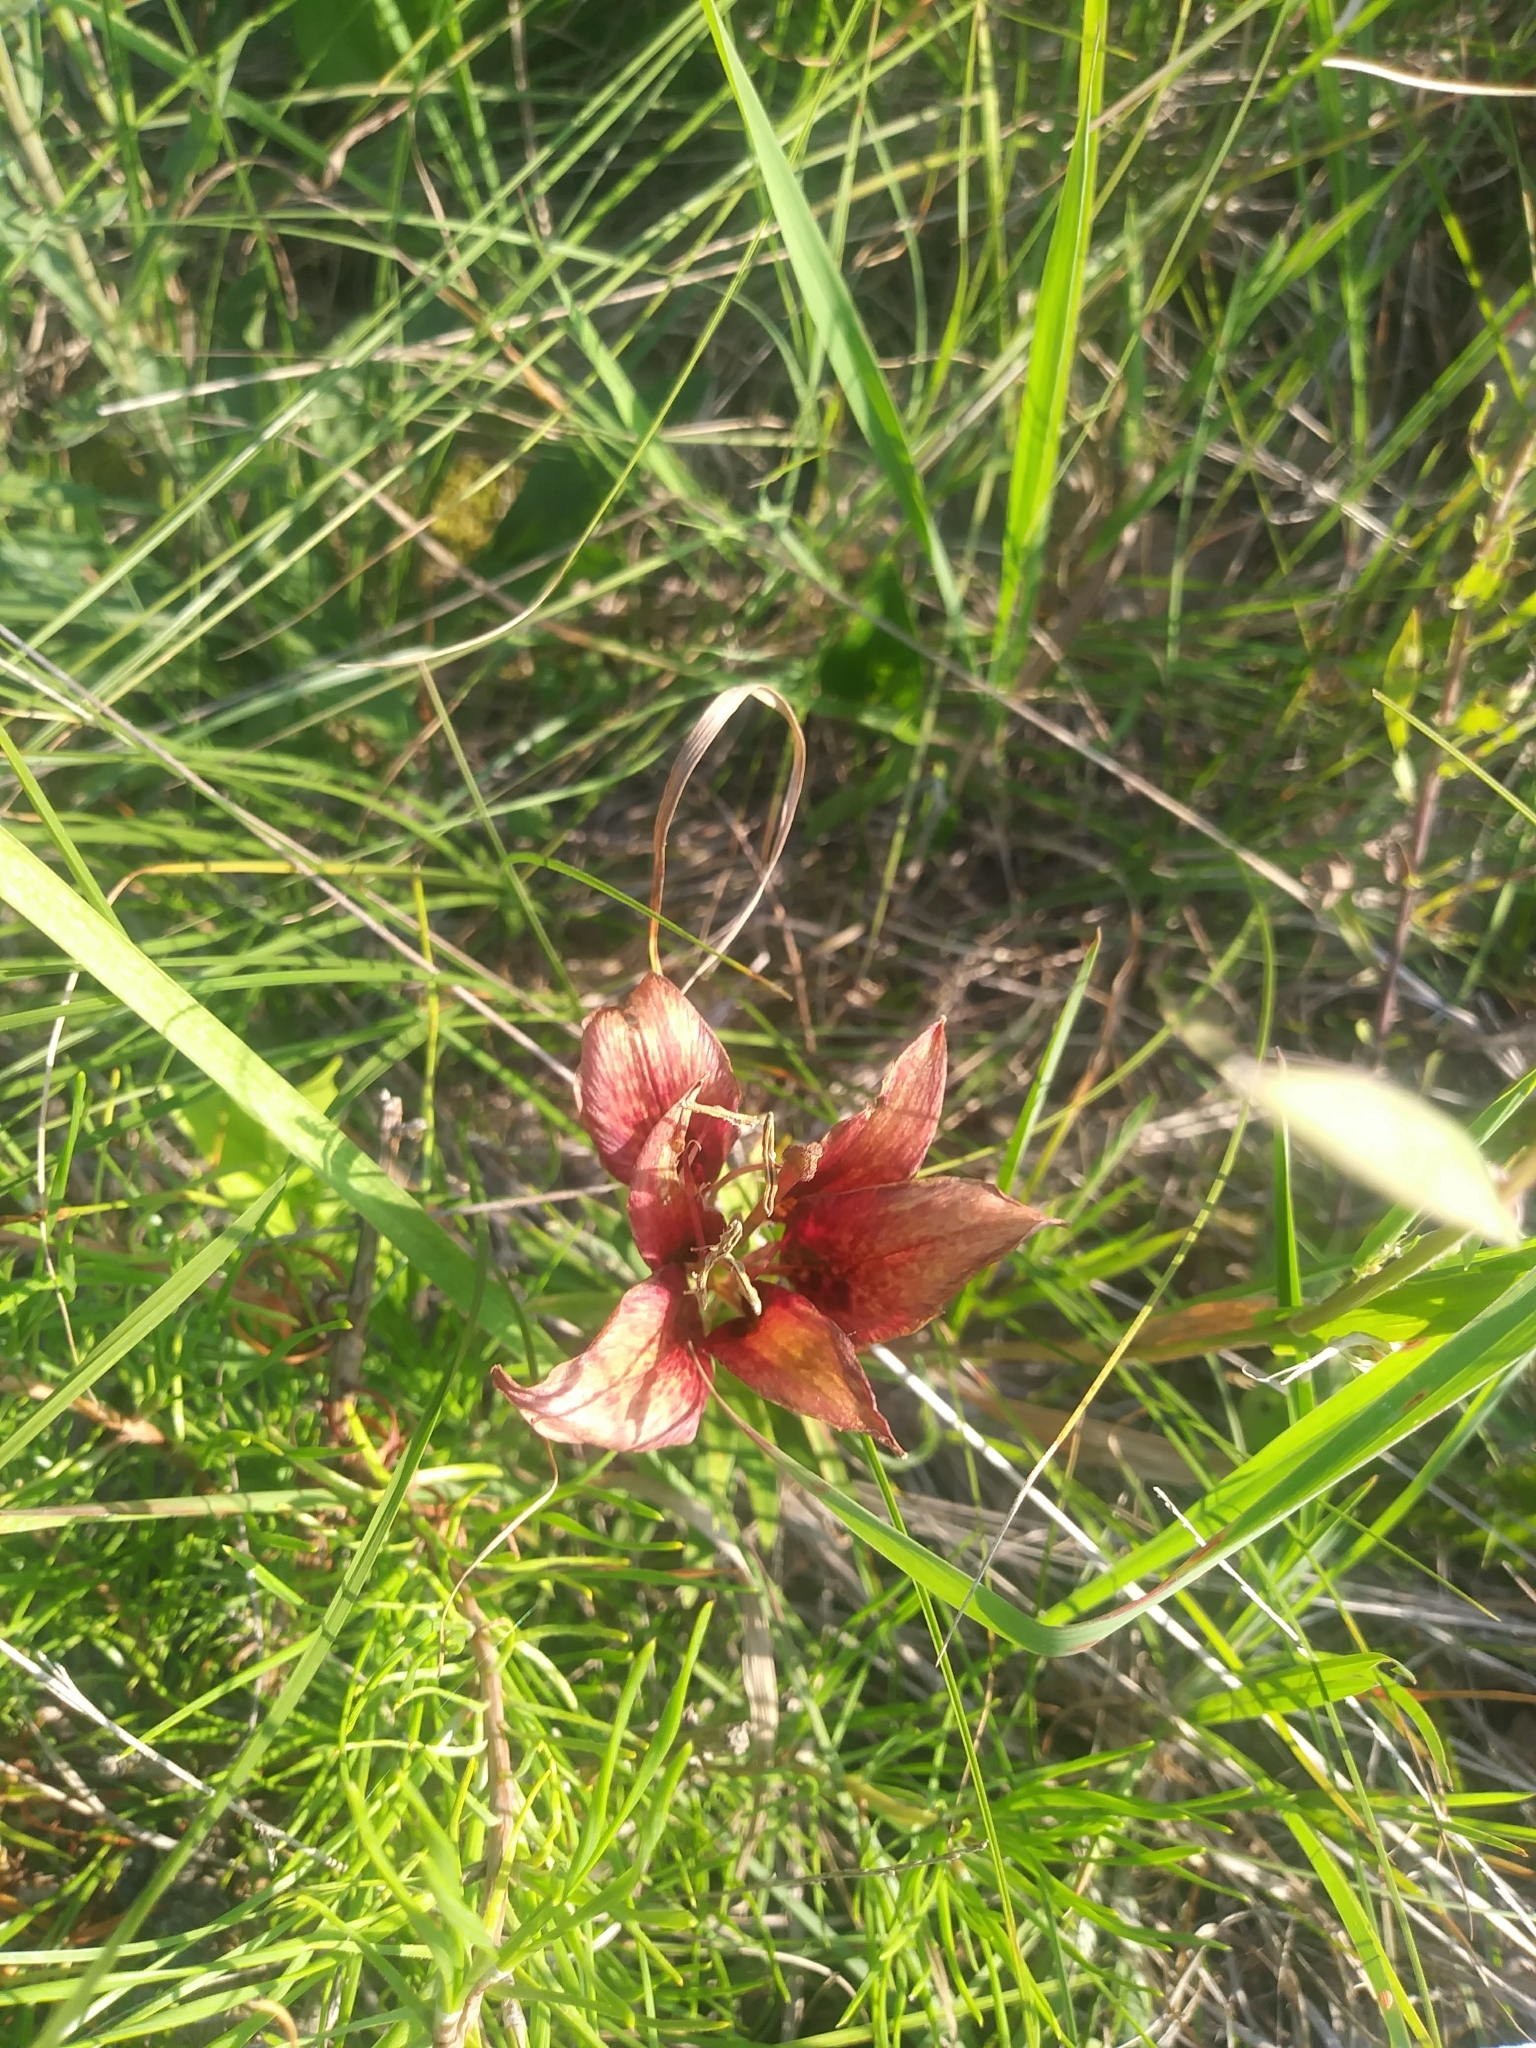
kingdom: Plantae
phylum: Tracheophyta
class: Liliopsida
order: Liliales
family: Liliaceae
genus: Lilium
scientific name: Lilium philadelphicum
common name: Red lily
